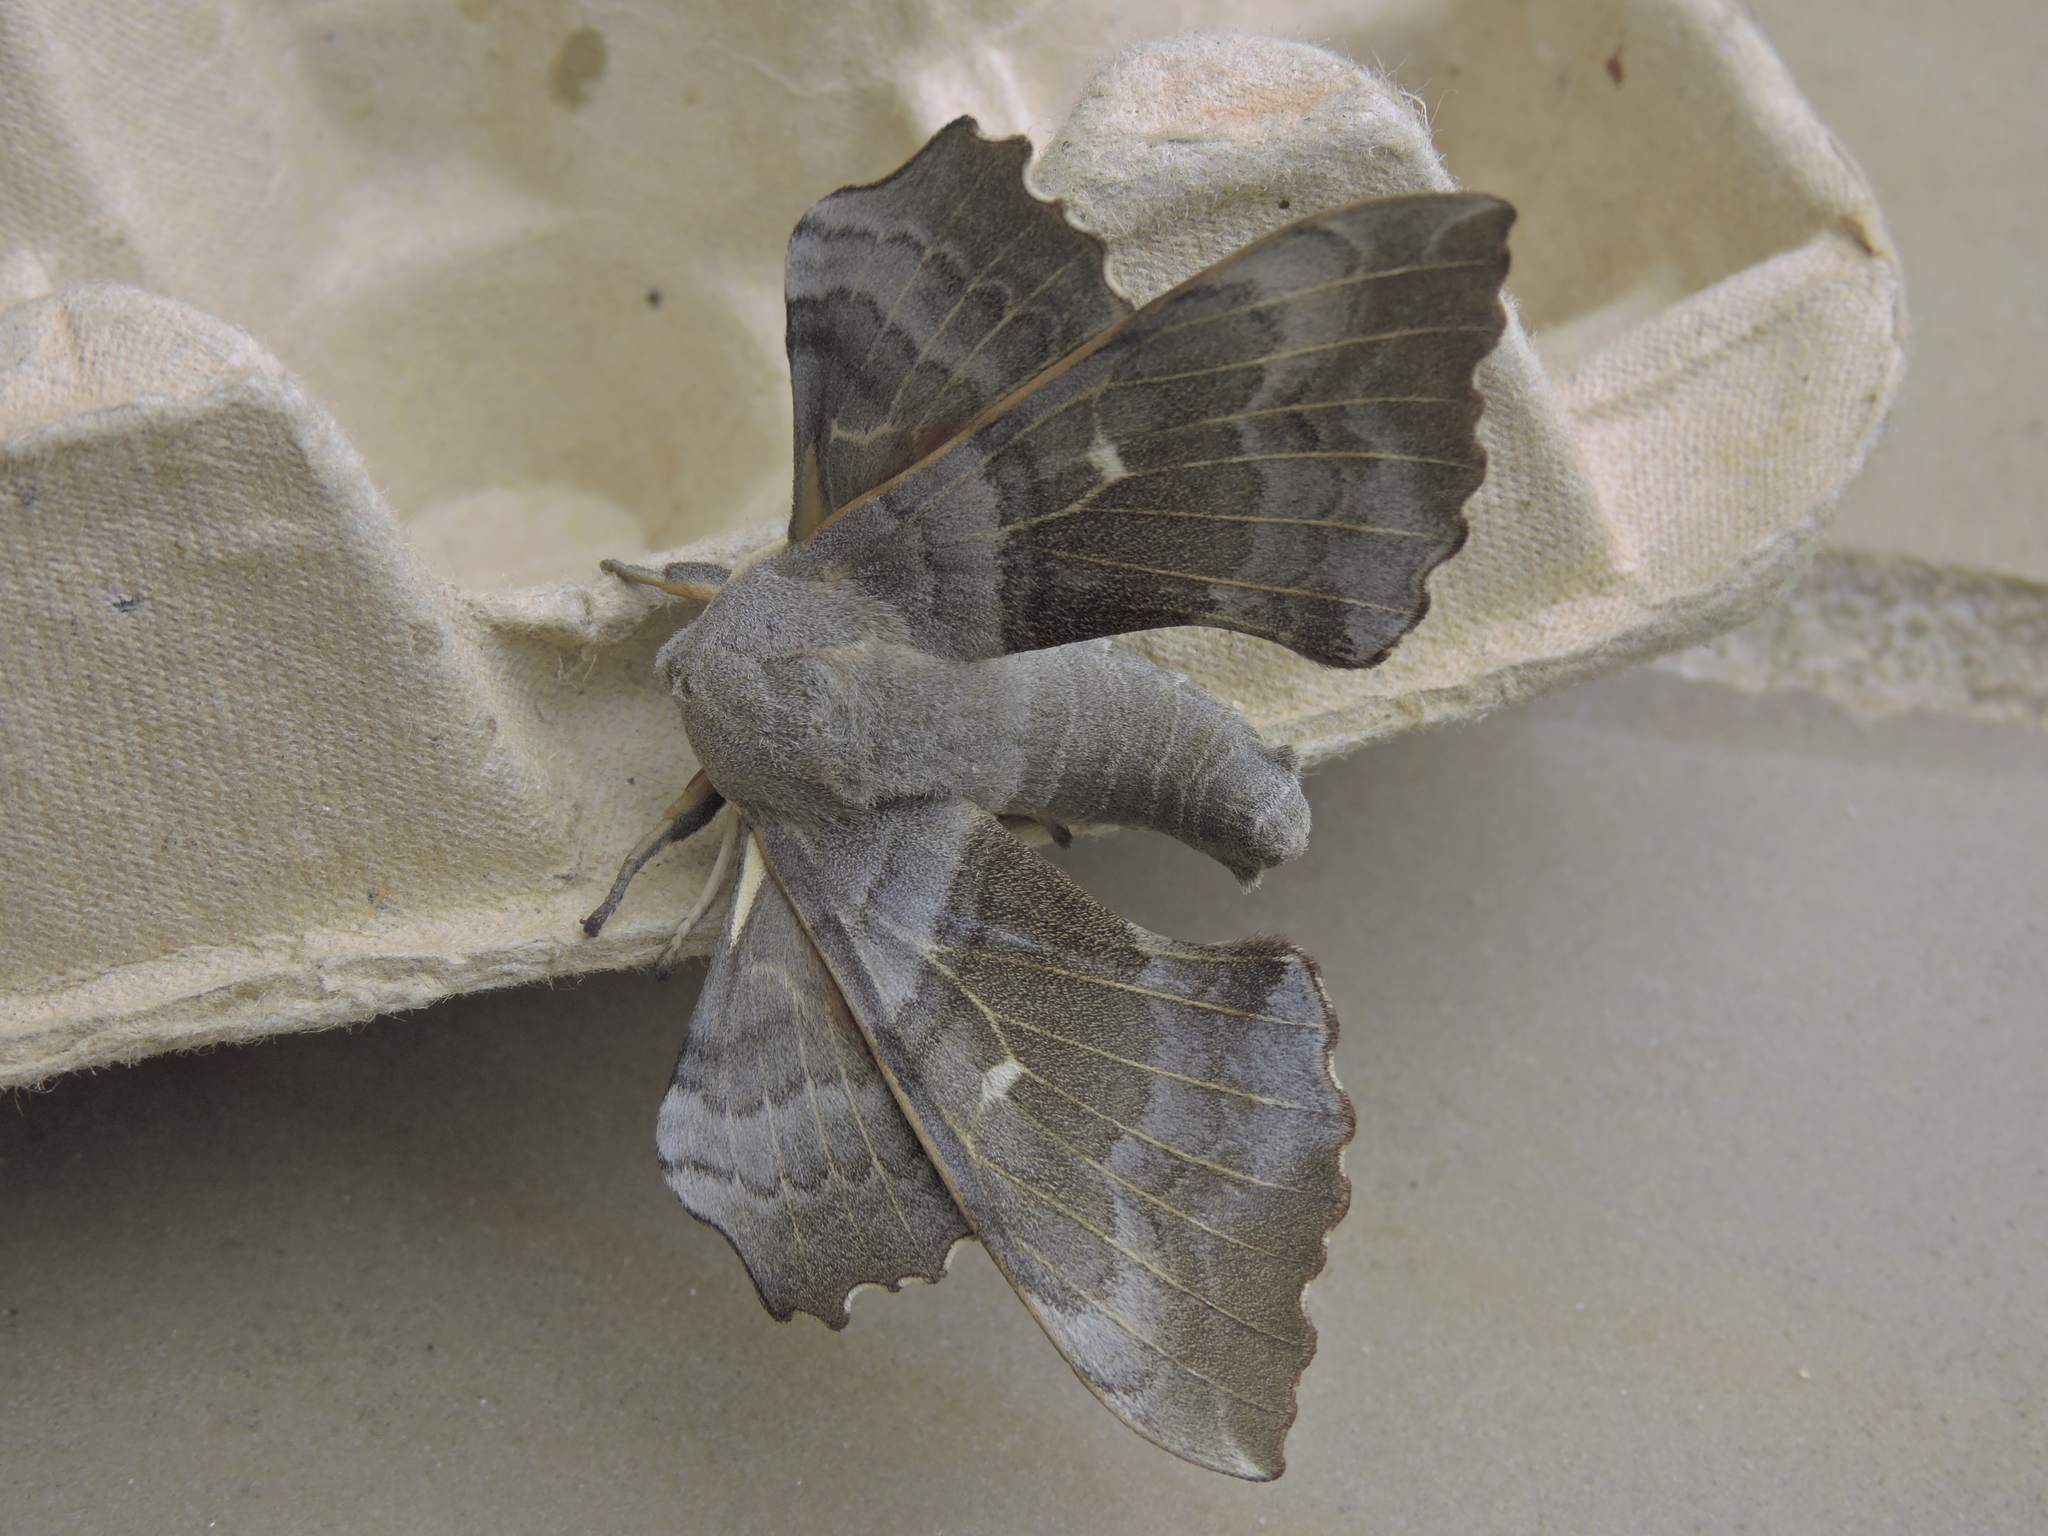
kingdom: Animalia
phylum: Arthropoda
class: Insecta
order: Lepidoptera
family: Sphingidae
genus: Laothoe
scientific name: Laothoe populi
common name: Poplar hawk-moth
